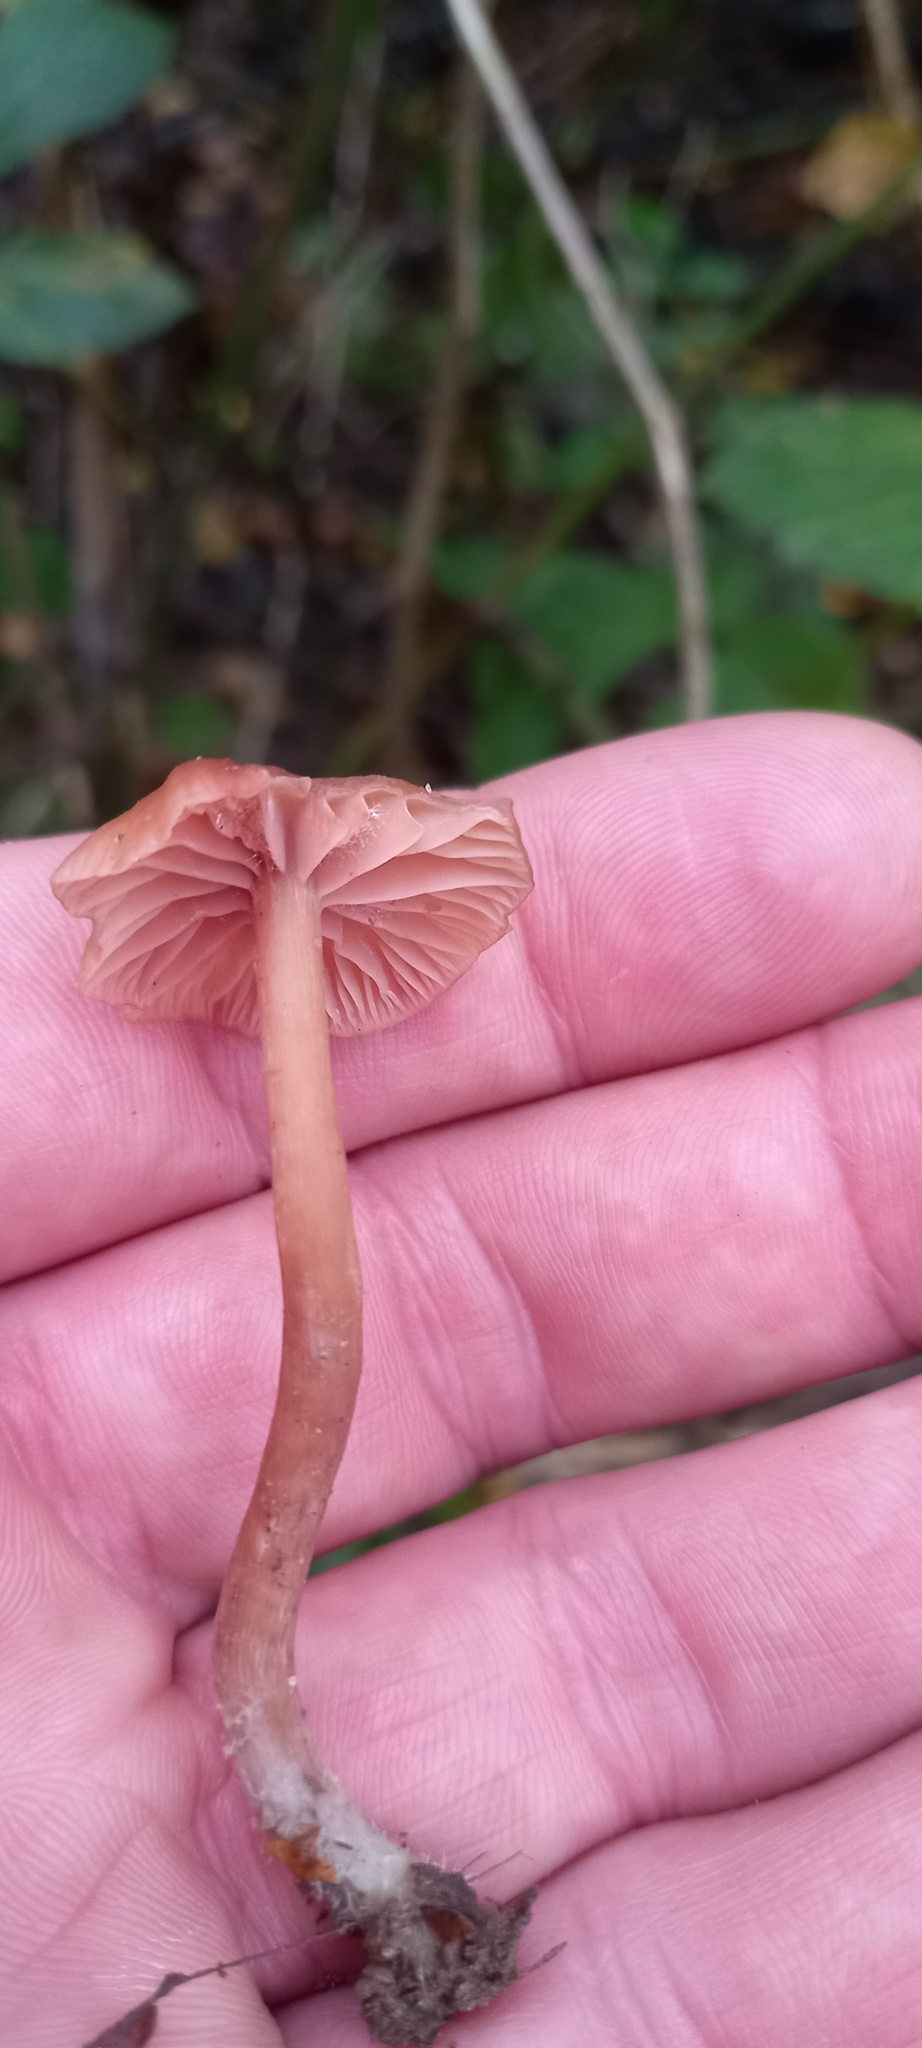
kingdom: Fungi
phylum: Basidiomycota
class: Agaricomycetes
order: Agaricales
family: Hydnangiaceae
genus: Laccaria
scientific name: Laccaria laccata
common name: Deceiver
